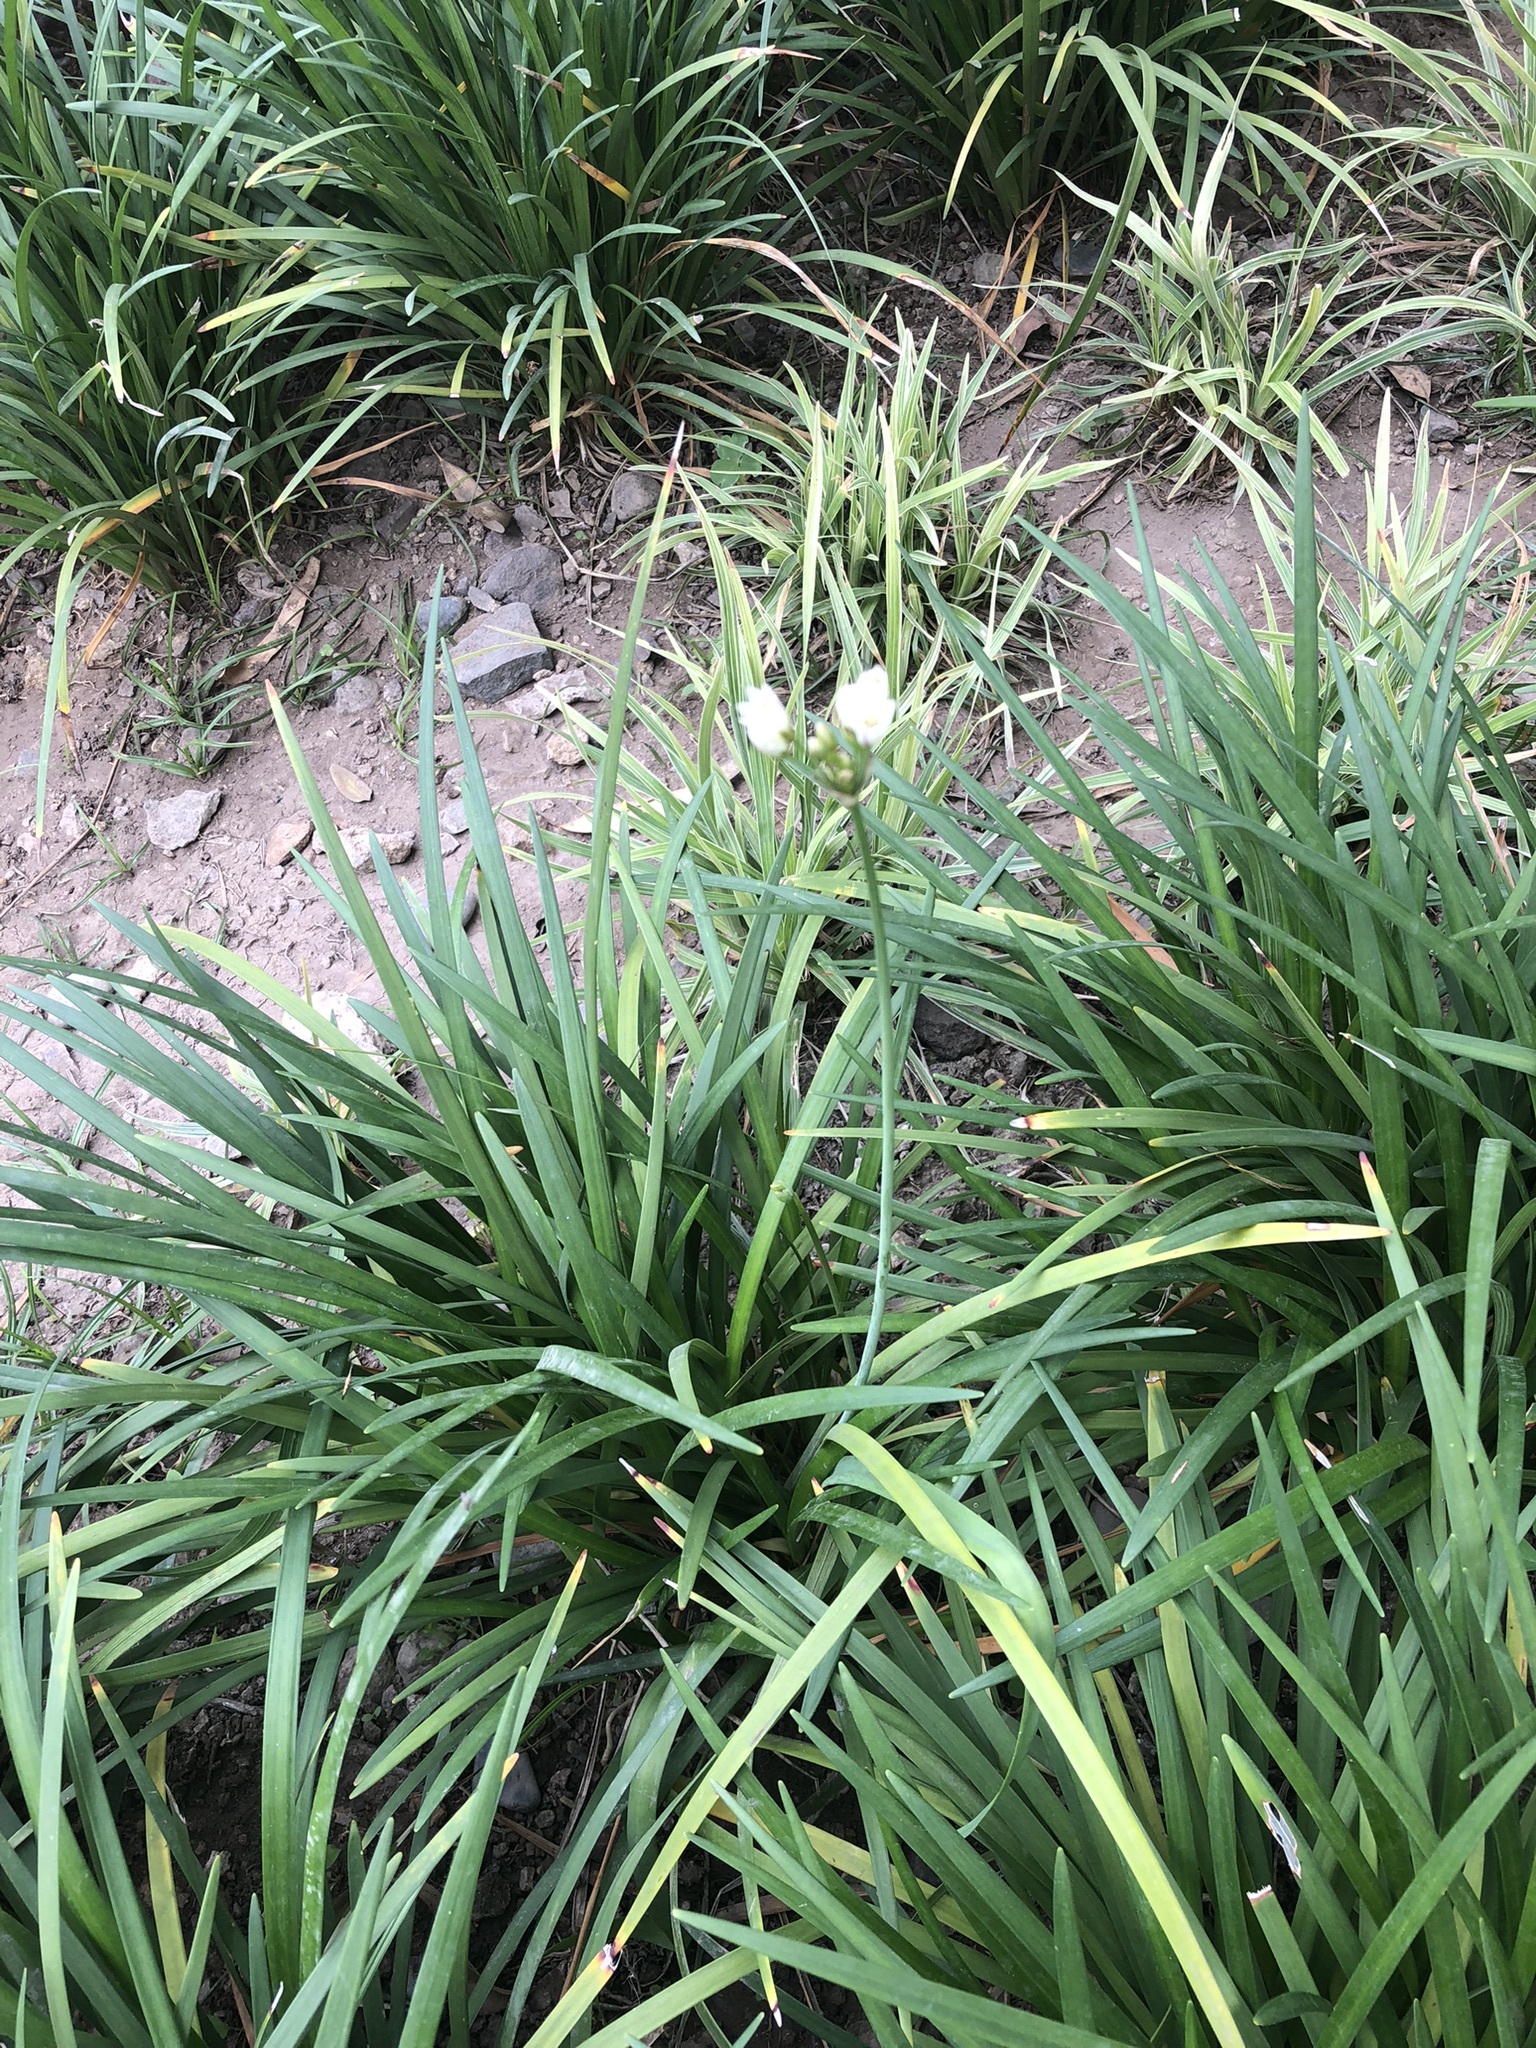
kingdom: Plantae
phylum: Tracheophyta
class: Liliopsida
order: Asparagales
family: Amaryllidaceae
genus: Nothoscordum
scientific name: Nothoscordum gracile
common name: Slender false garlic
